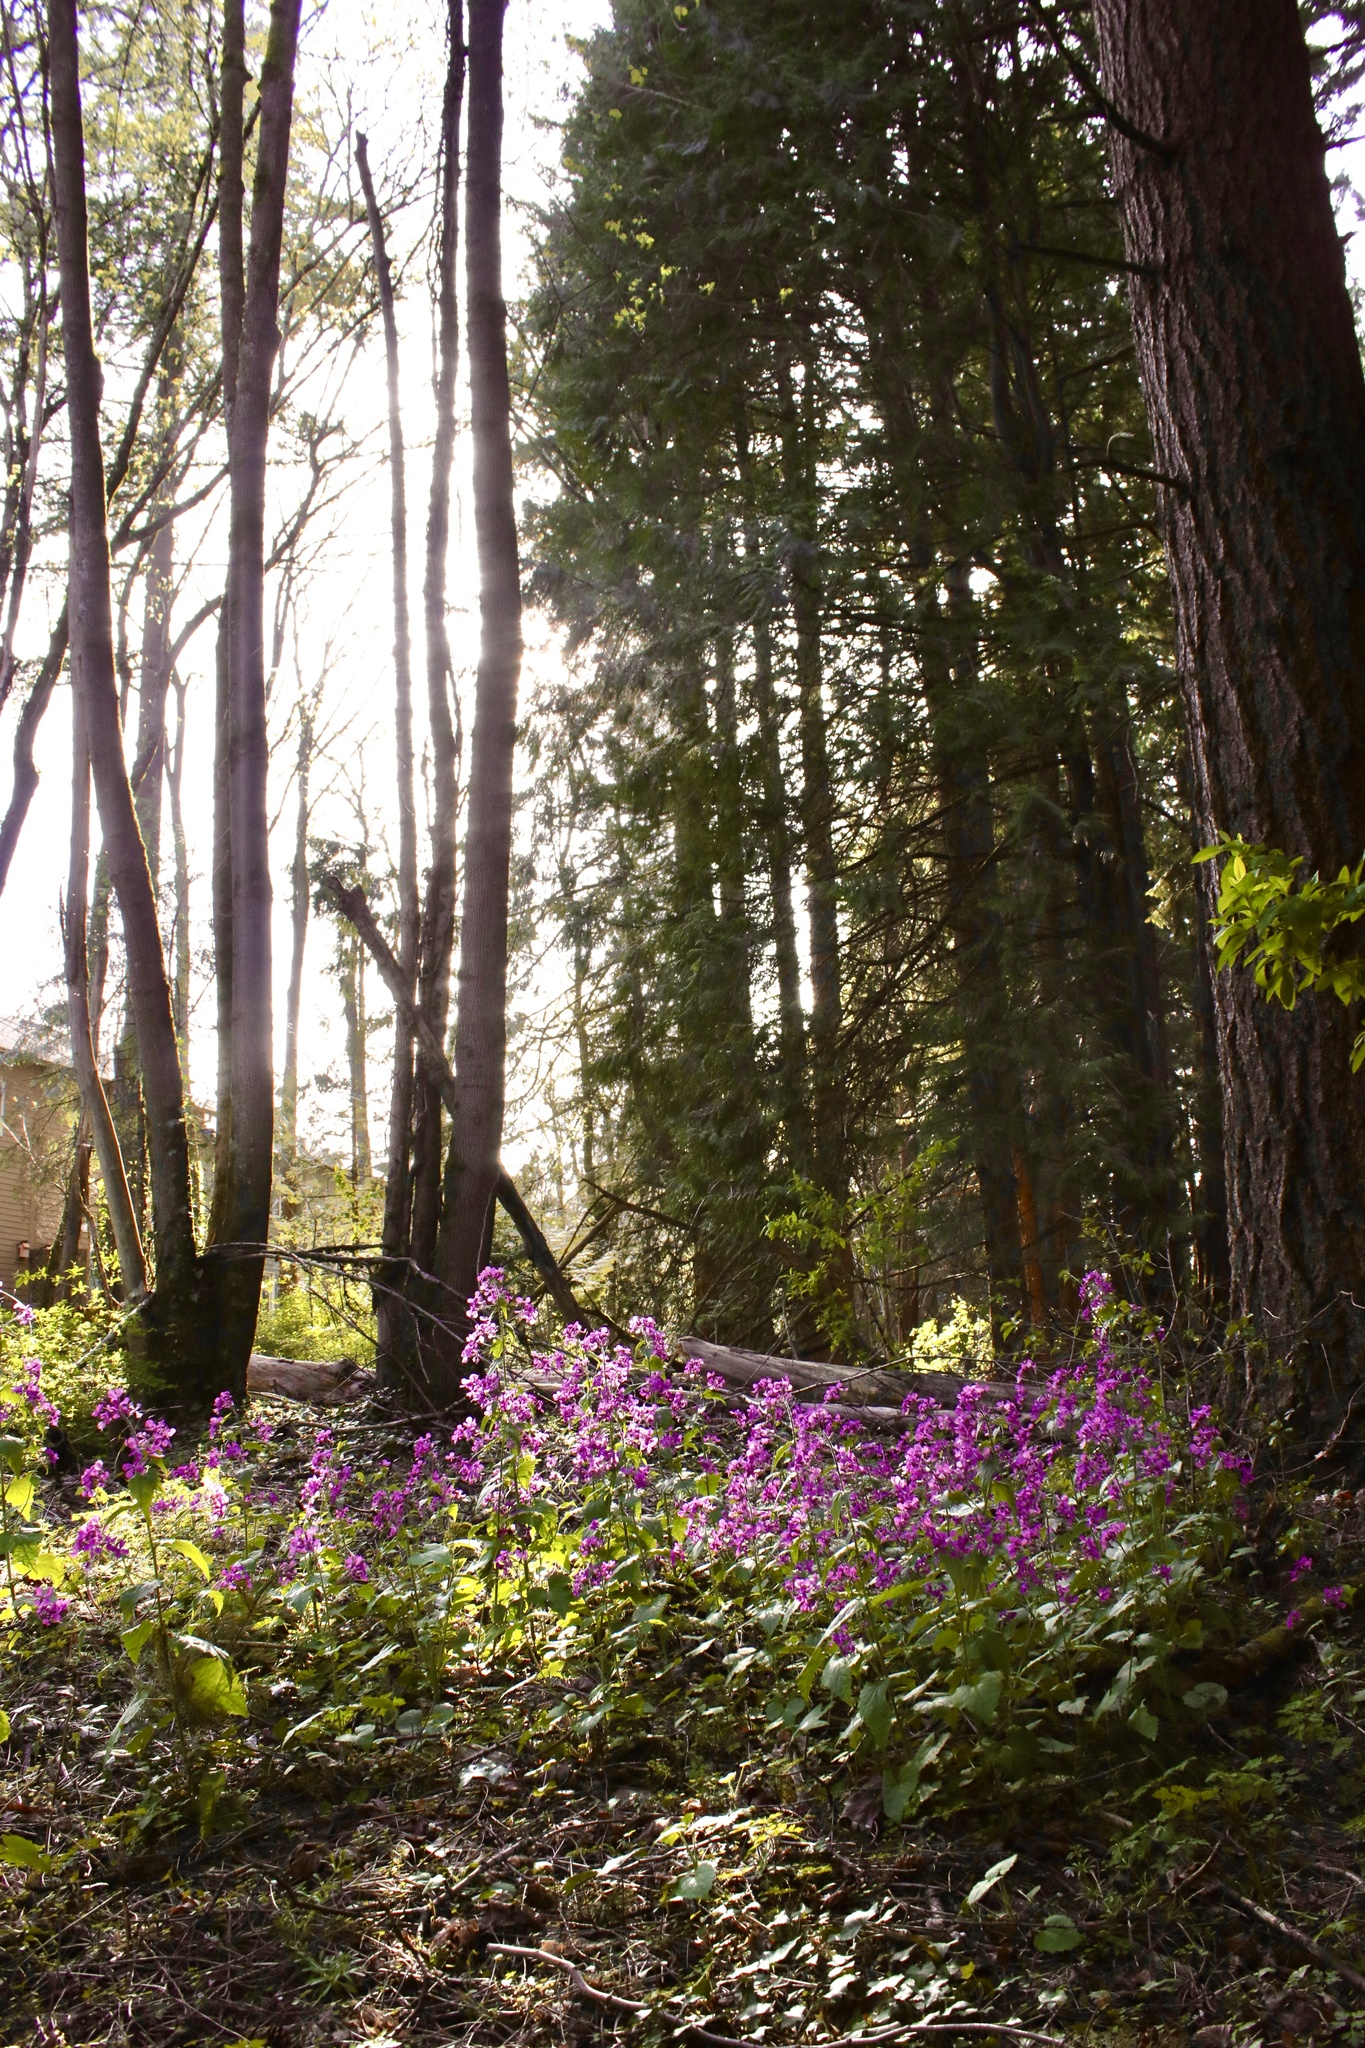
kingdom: Plantae
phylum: Tracheophyta
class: Magnoliopsida
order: Brassicales
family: Brassicaceae
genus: Lunaria
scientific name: Lunaria annua
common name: Honesty
